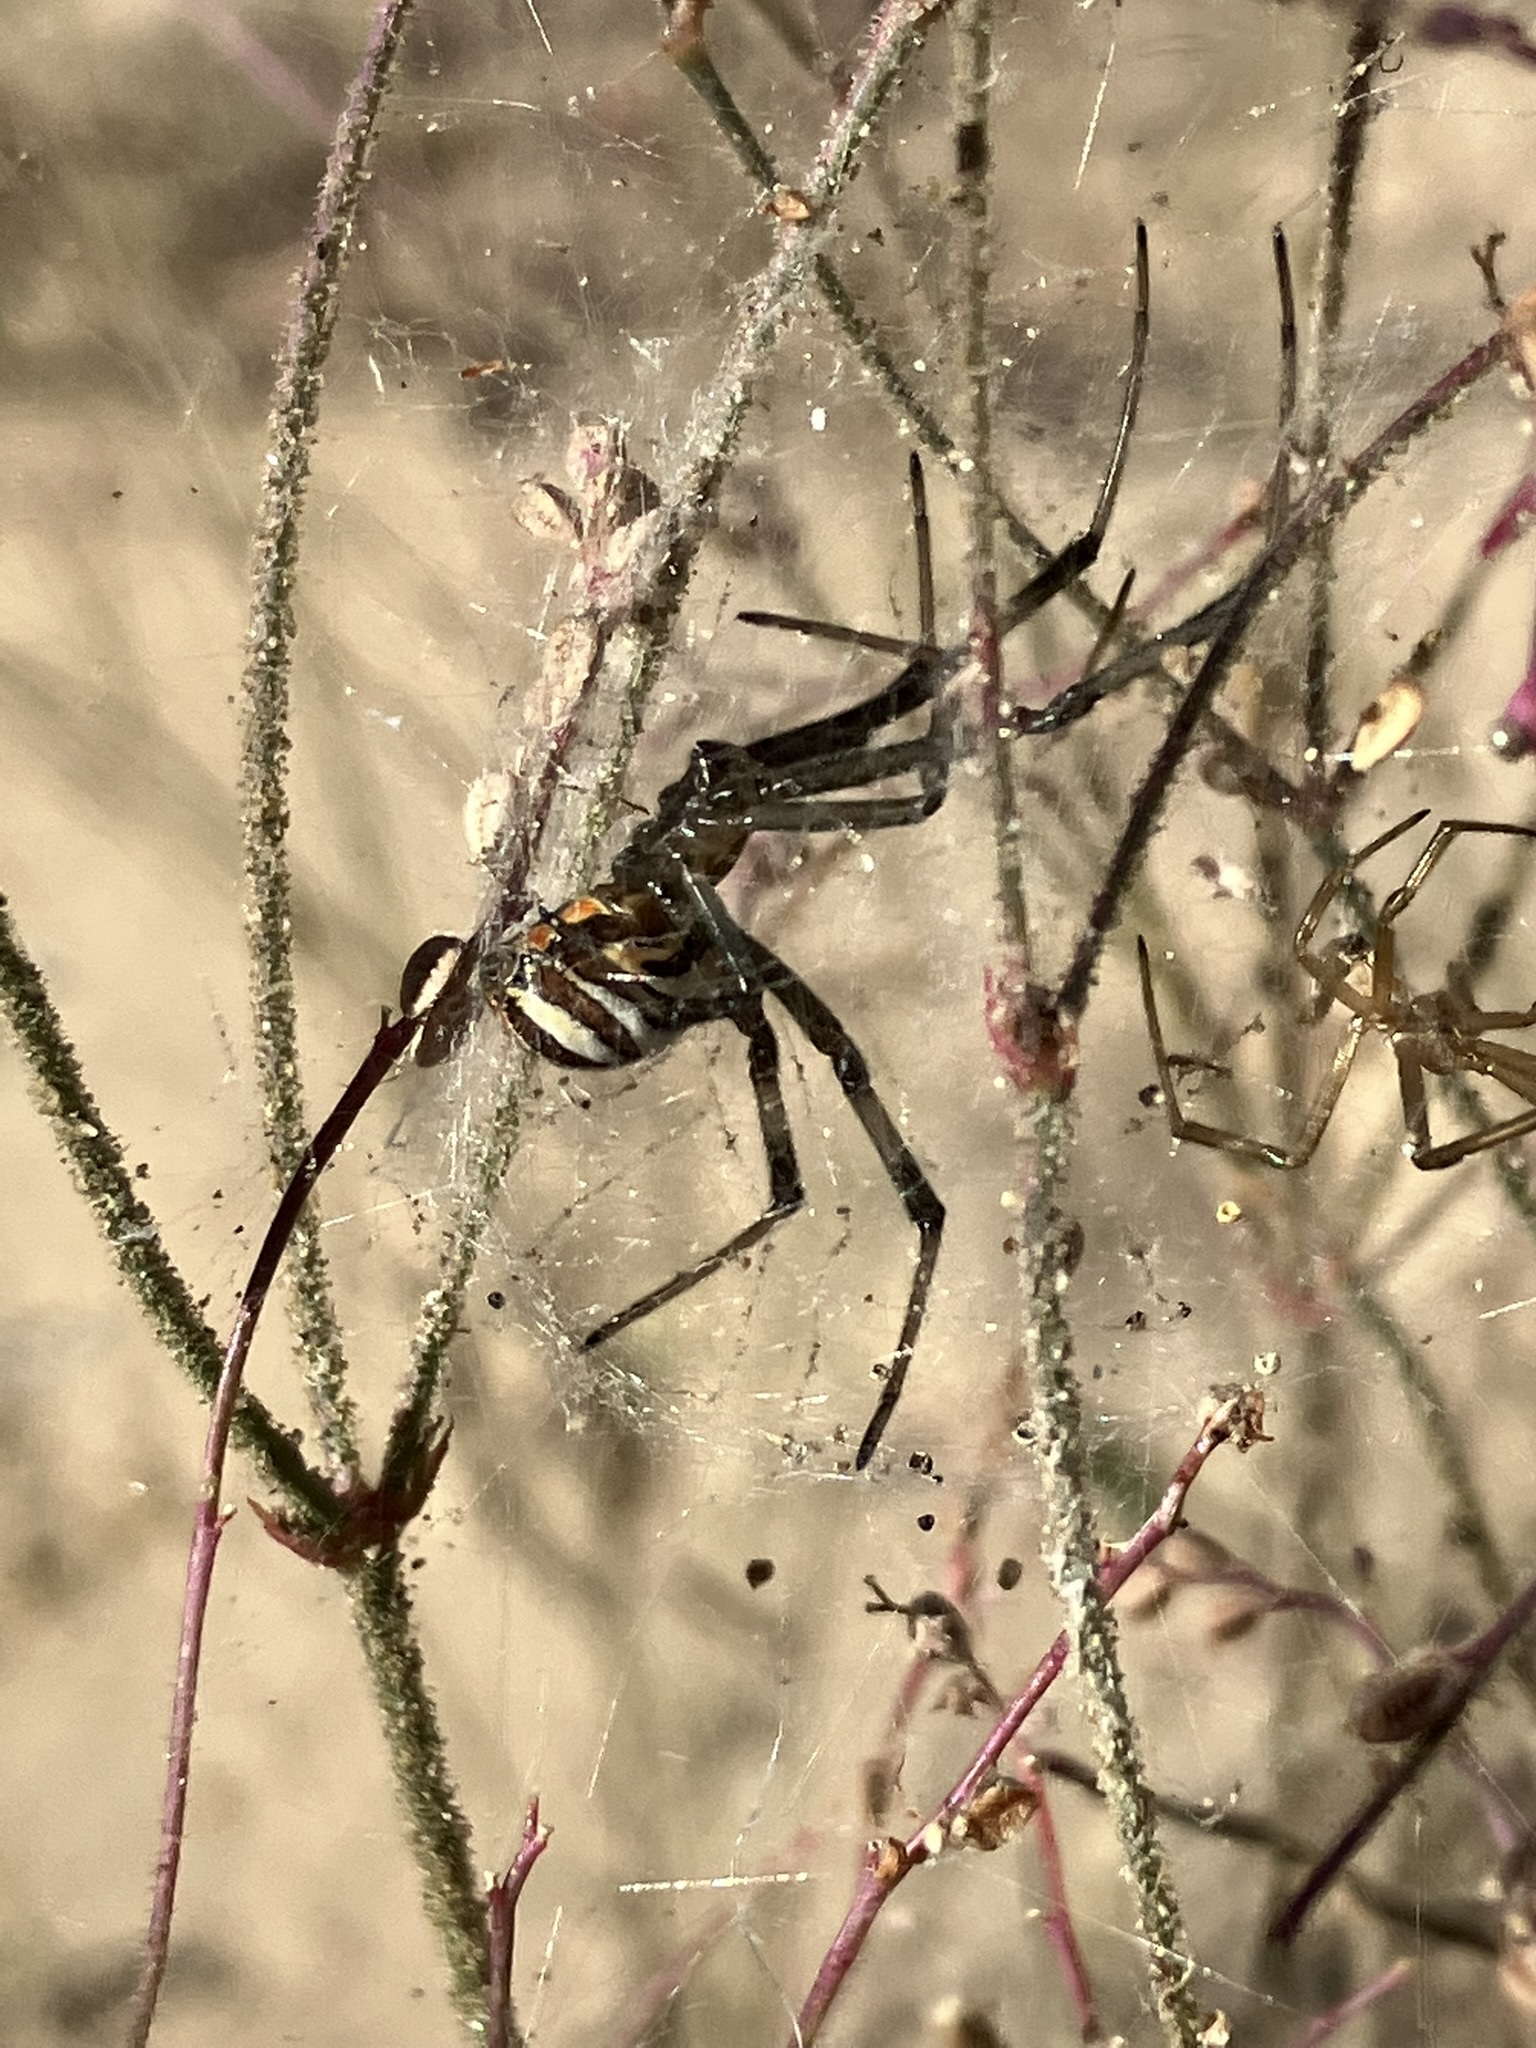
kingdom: Animalia
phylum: Arthropoda
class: Arachnida
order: Araneae
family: Theridiidae
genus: Latrodectus
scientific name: Latrodectus hesperus
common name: Western black widow
